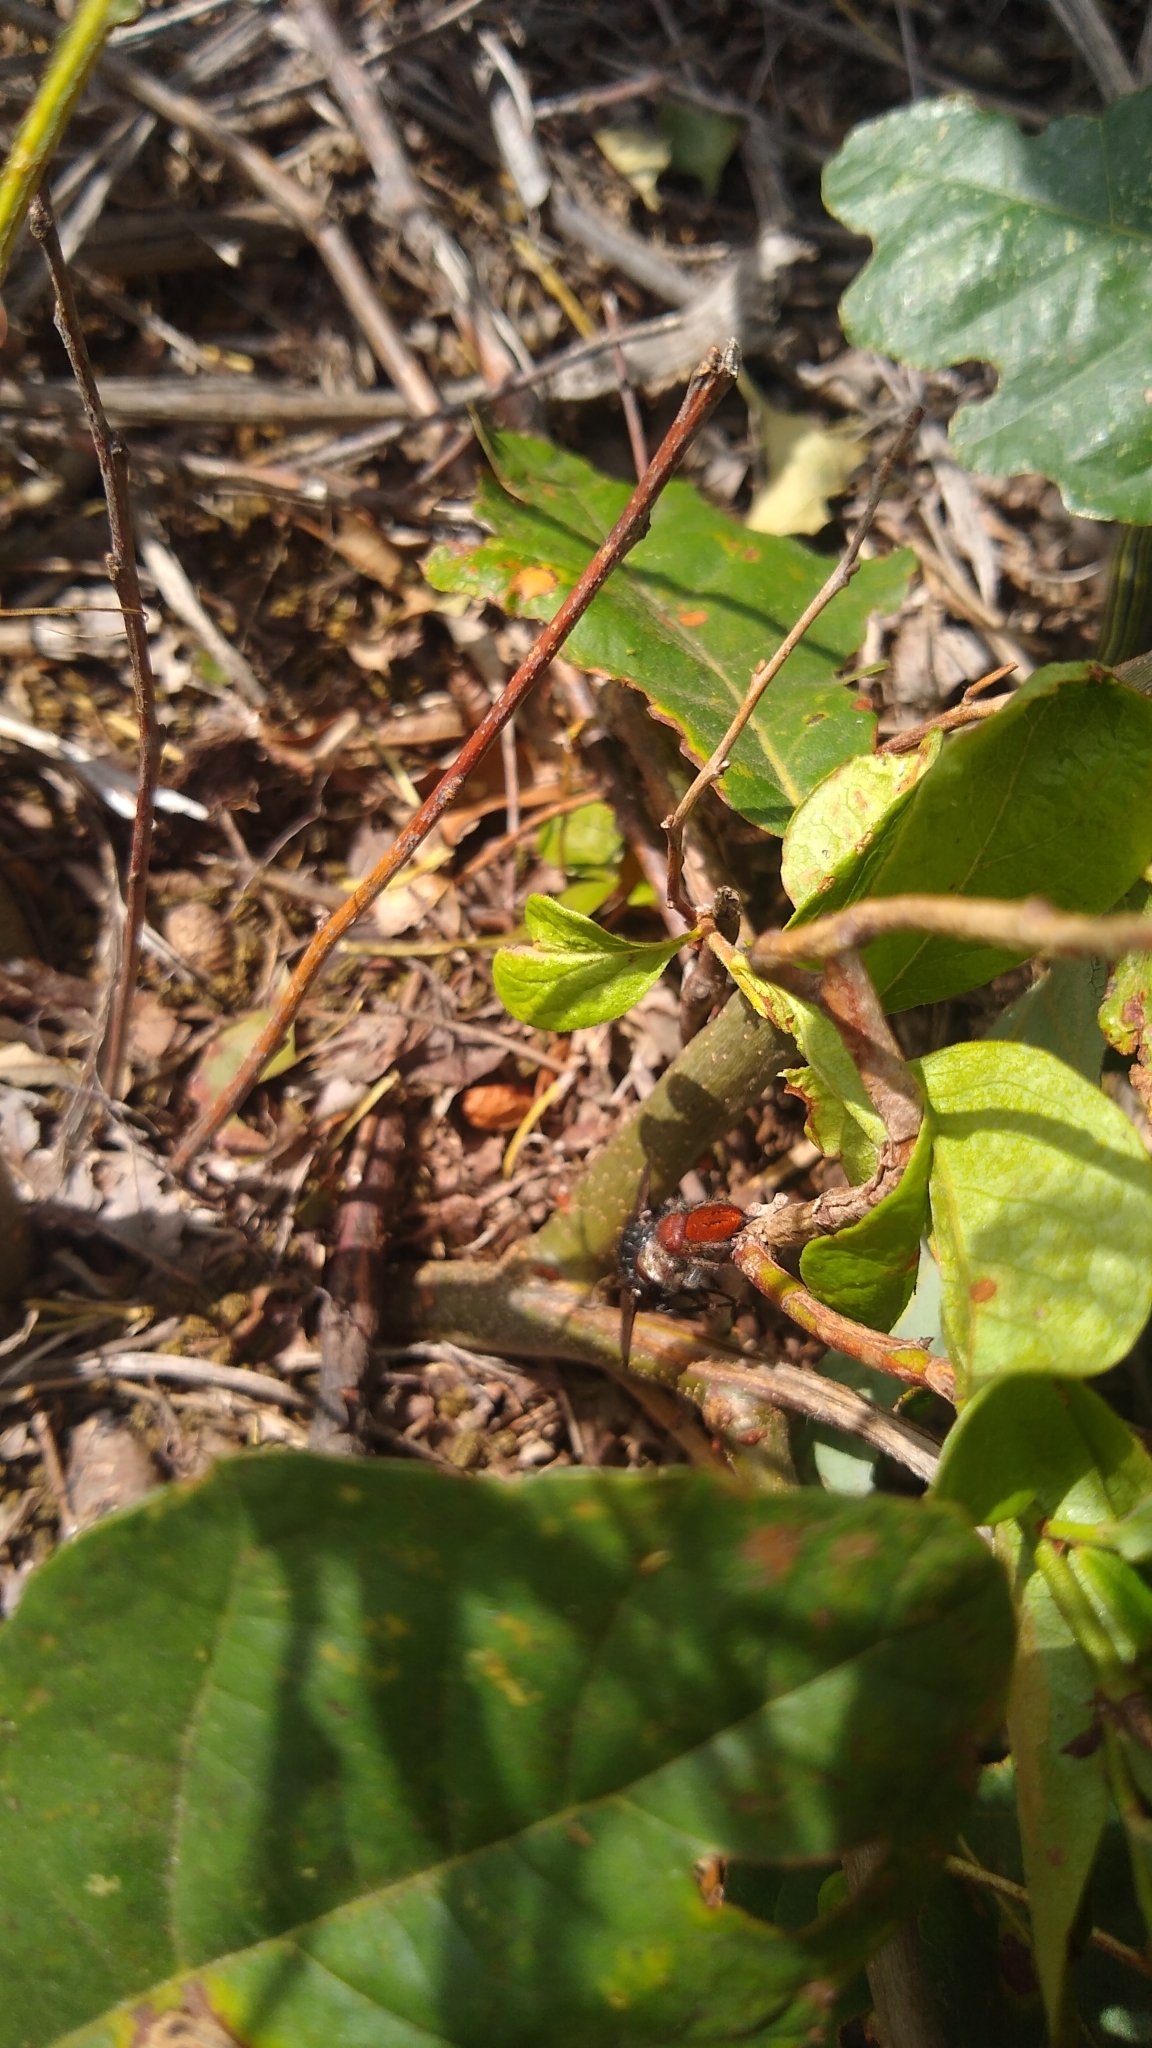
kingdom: Animalia
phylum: Arthropoda
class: Arachnida
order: Araneae
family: Salticidae
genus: Phidippus
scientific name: Phidippus cardinalis
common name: Cardinal jumper
